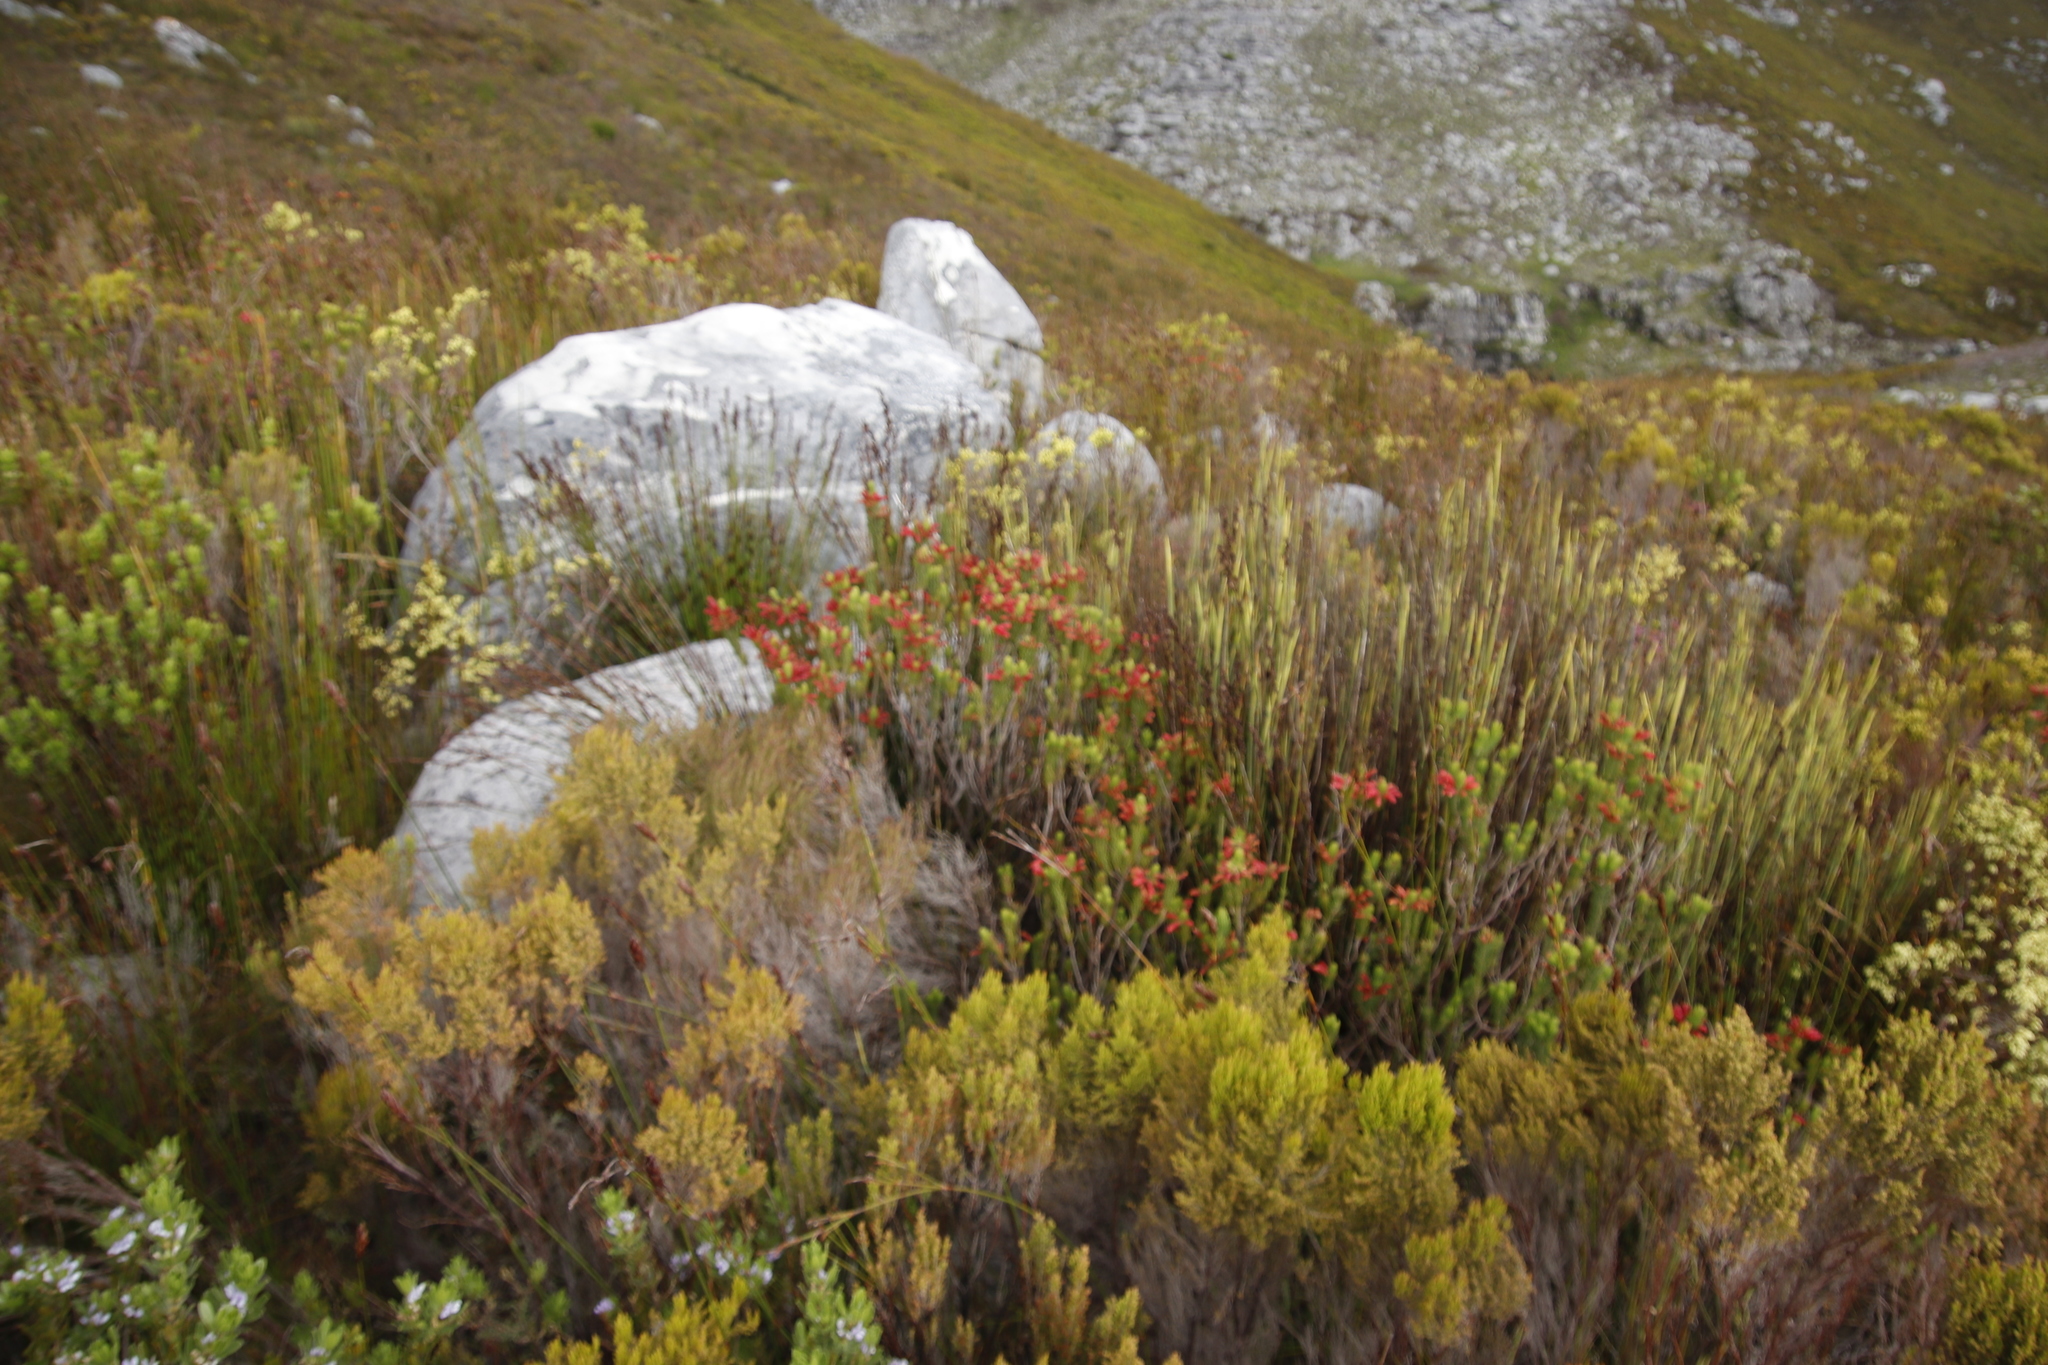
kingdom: Plantae
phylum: Tracheophyta
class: Magnoliopsida
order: Ericales
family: Ericaceae
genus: Erica
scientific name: Erica viscaria
